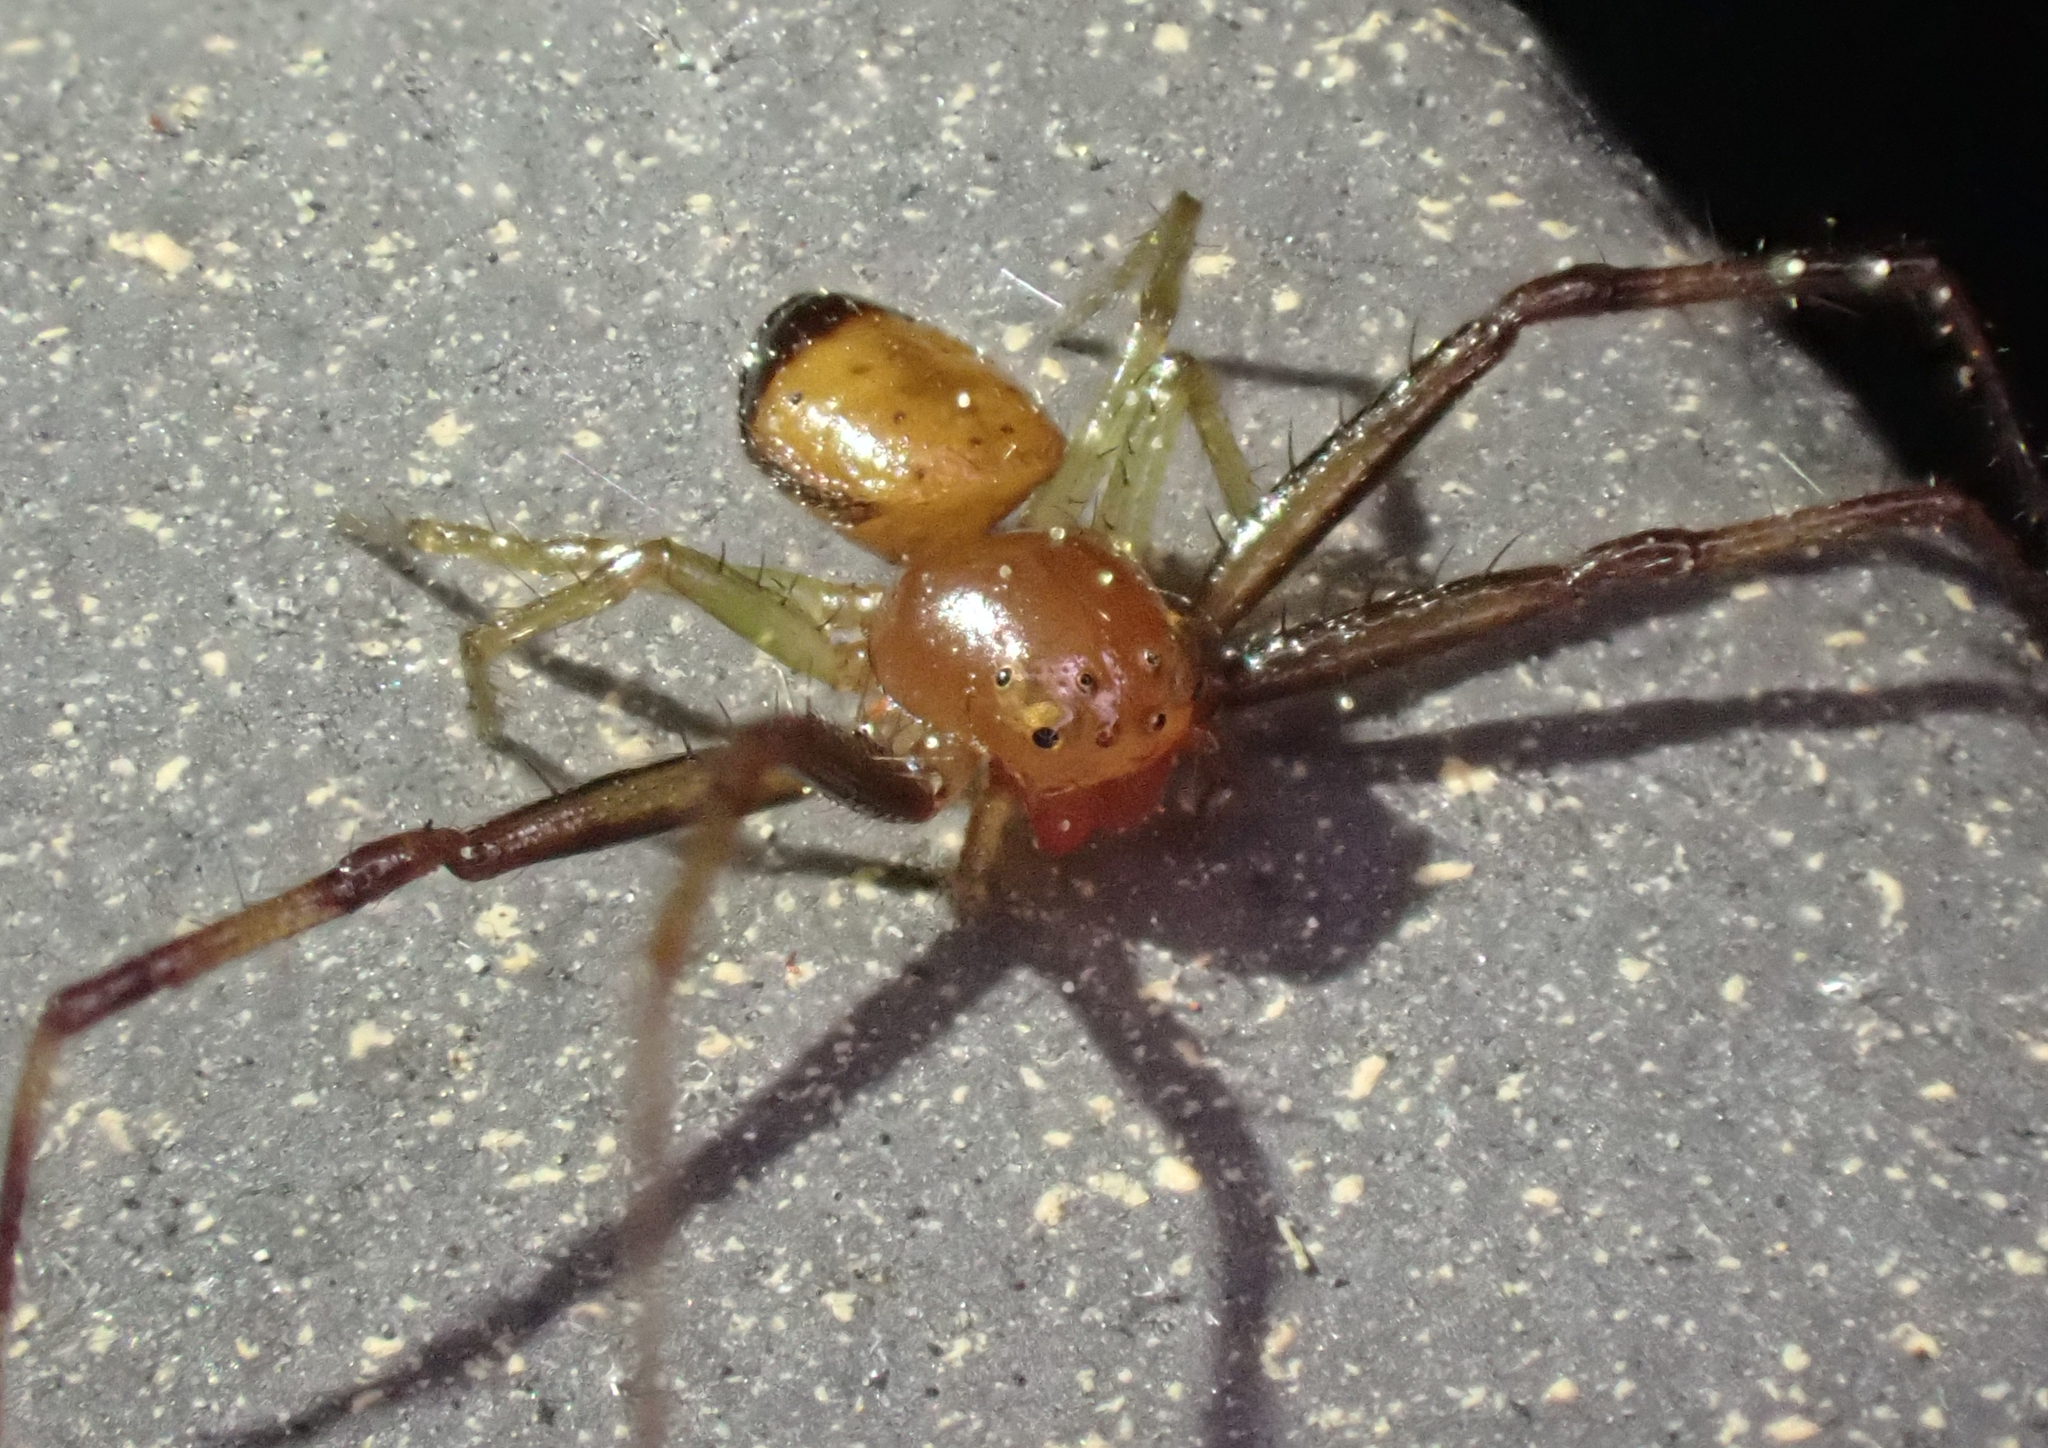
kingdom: Animalia
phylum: Arthropoda
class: Arachnida
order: Araneae
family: Thomisidae
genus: Synema
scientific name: Synema parvulum
